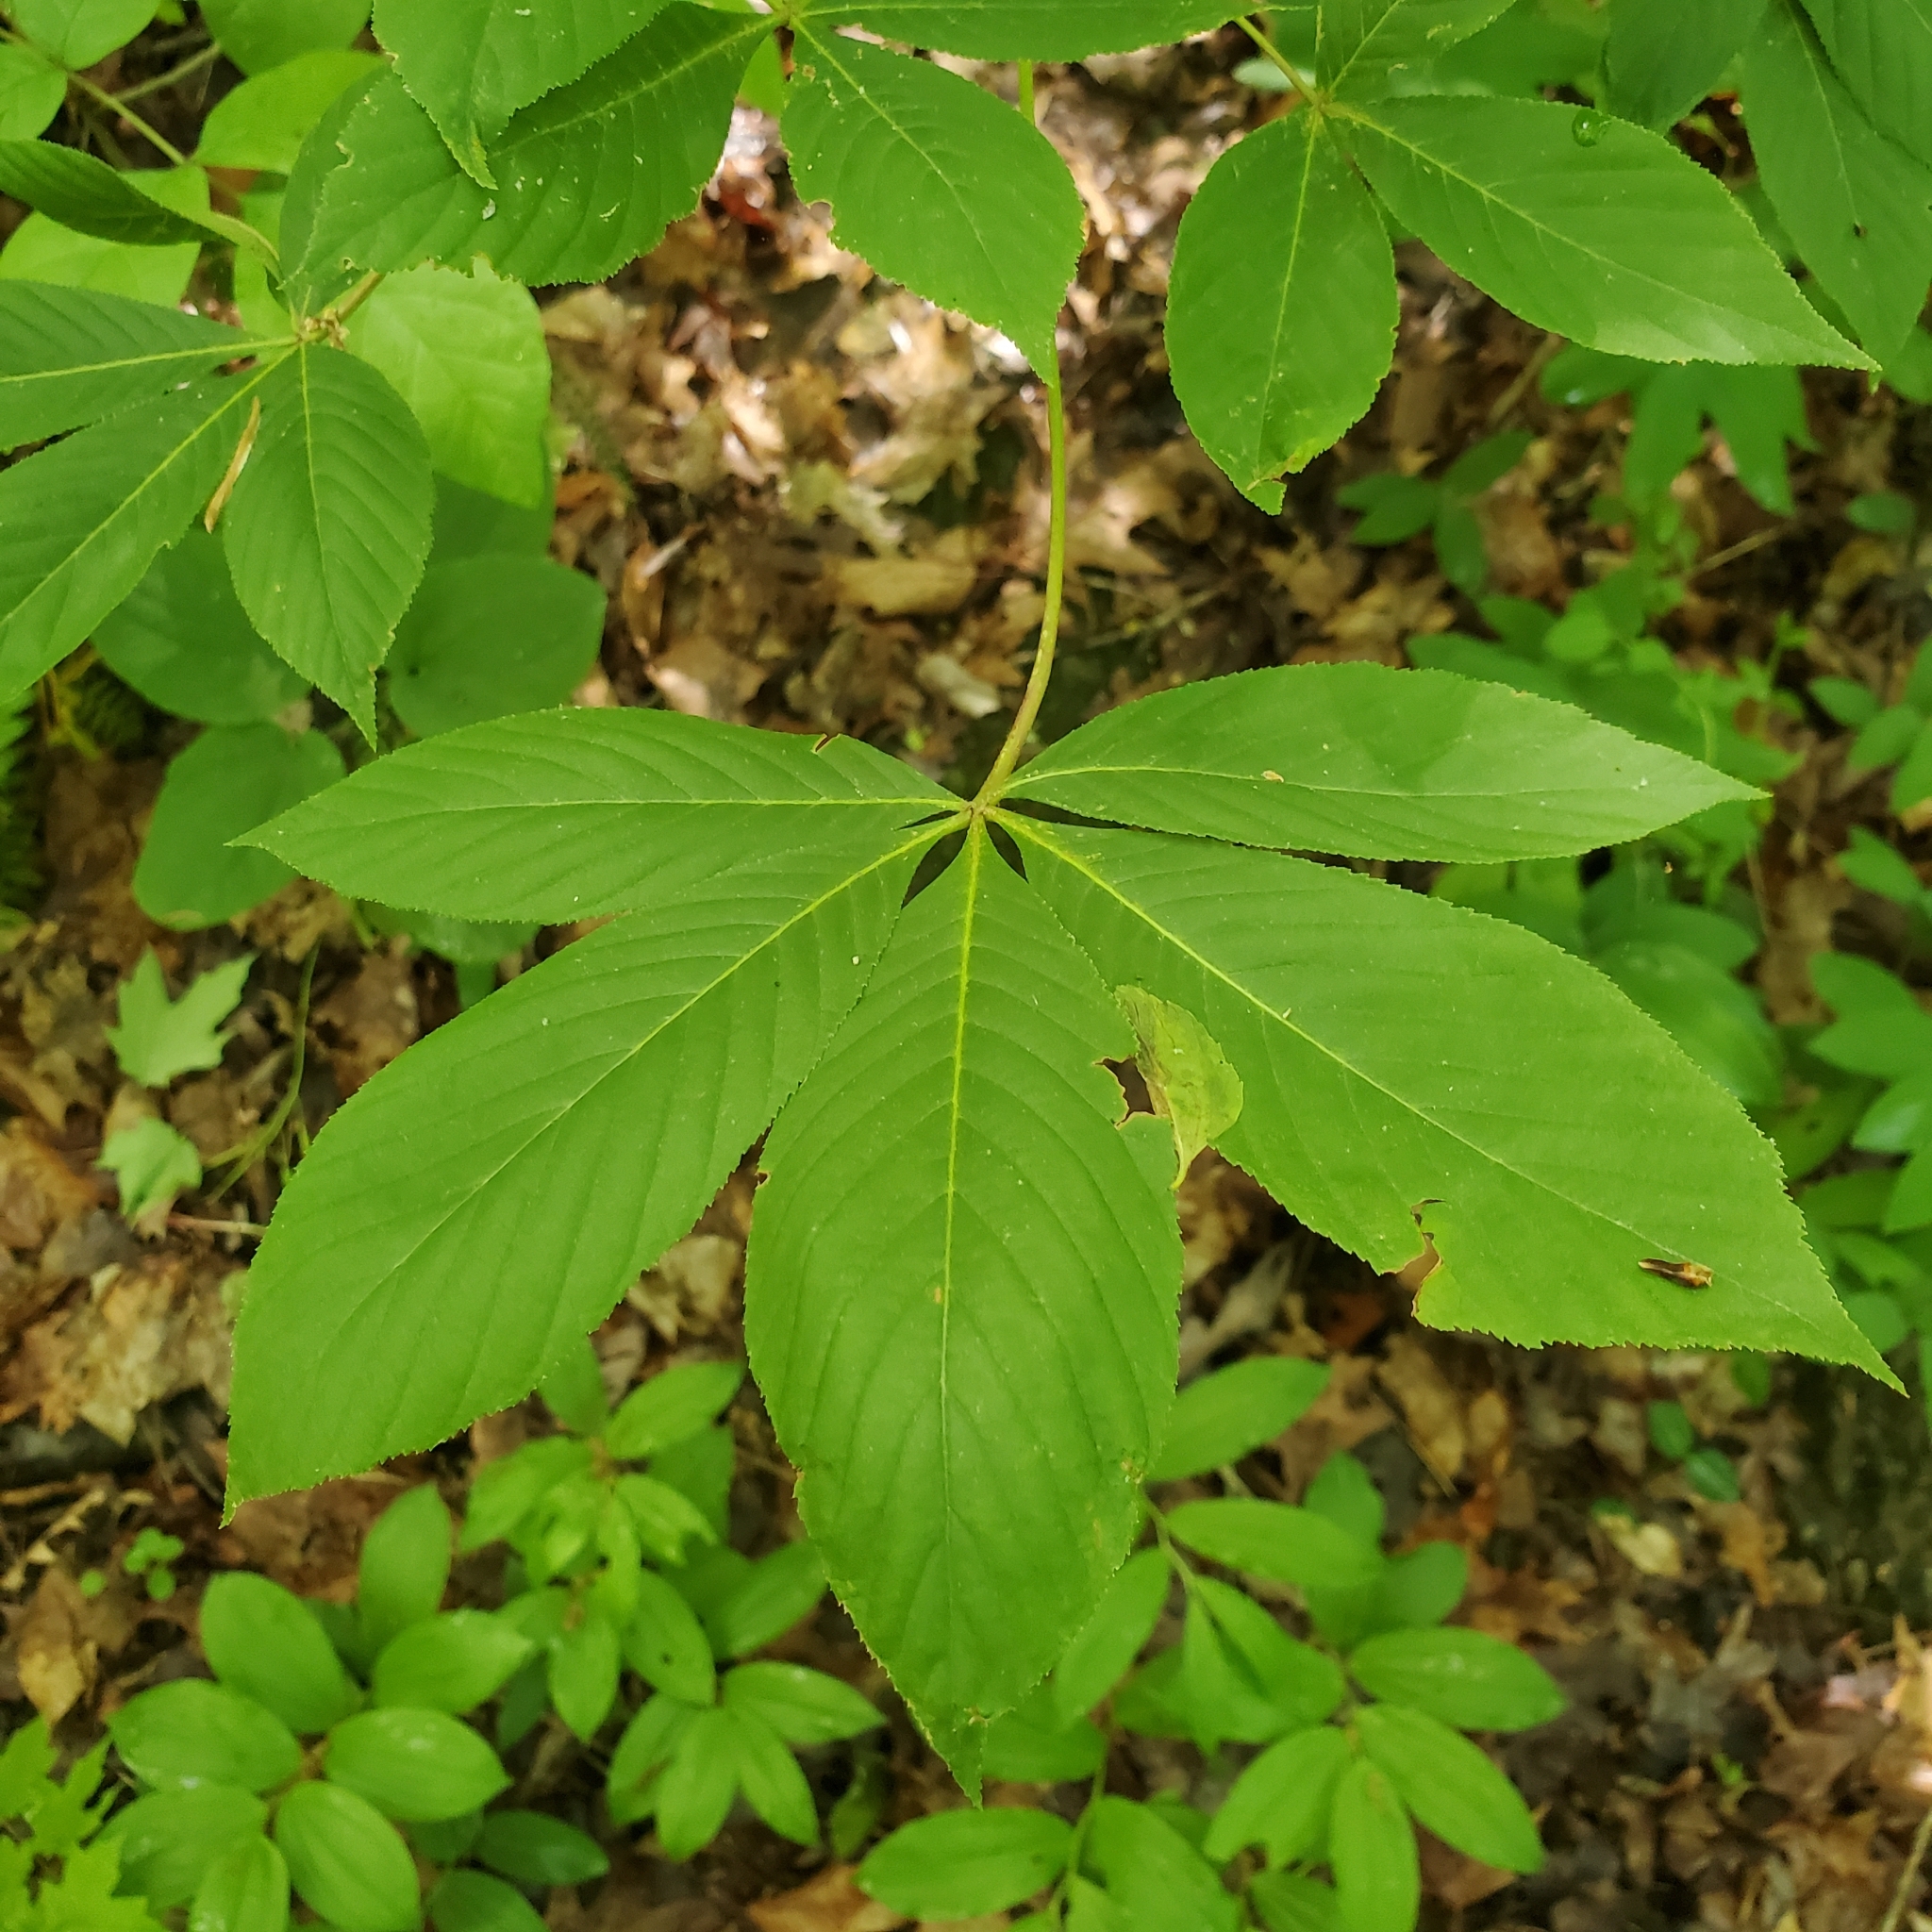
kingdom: Plantae
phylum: Tracheophyta
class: Magnoliopsida
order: Sapindales
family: Sapindaceae
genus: Aesculus
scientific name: Aesculus flava
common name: Yellow buckeye
